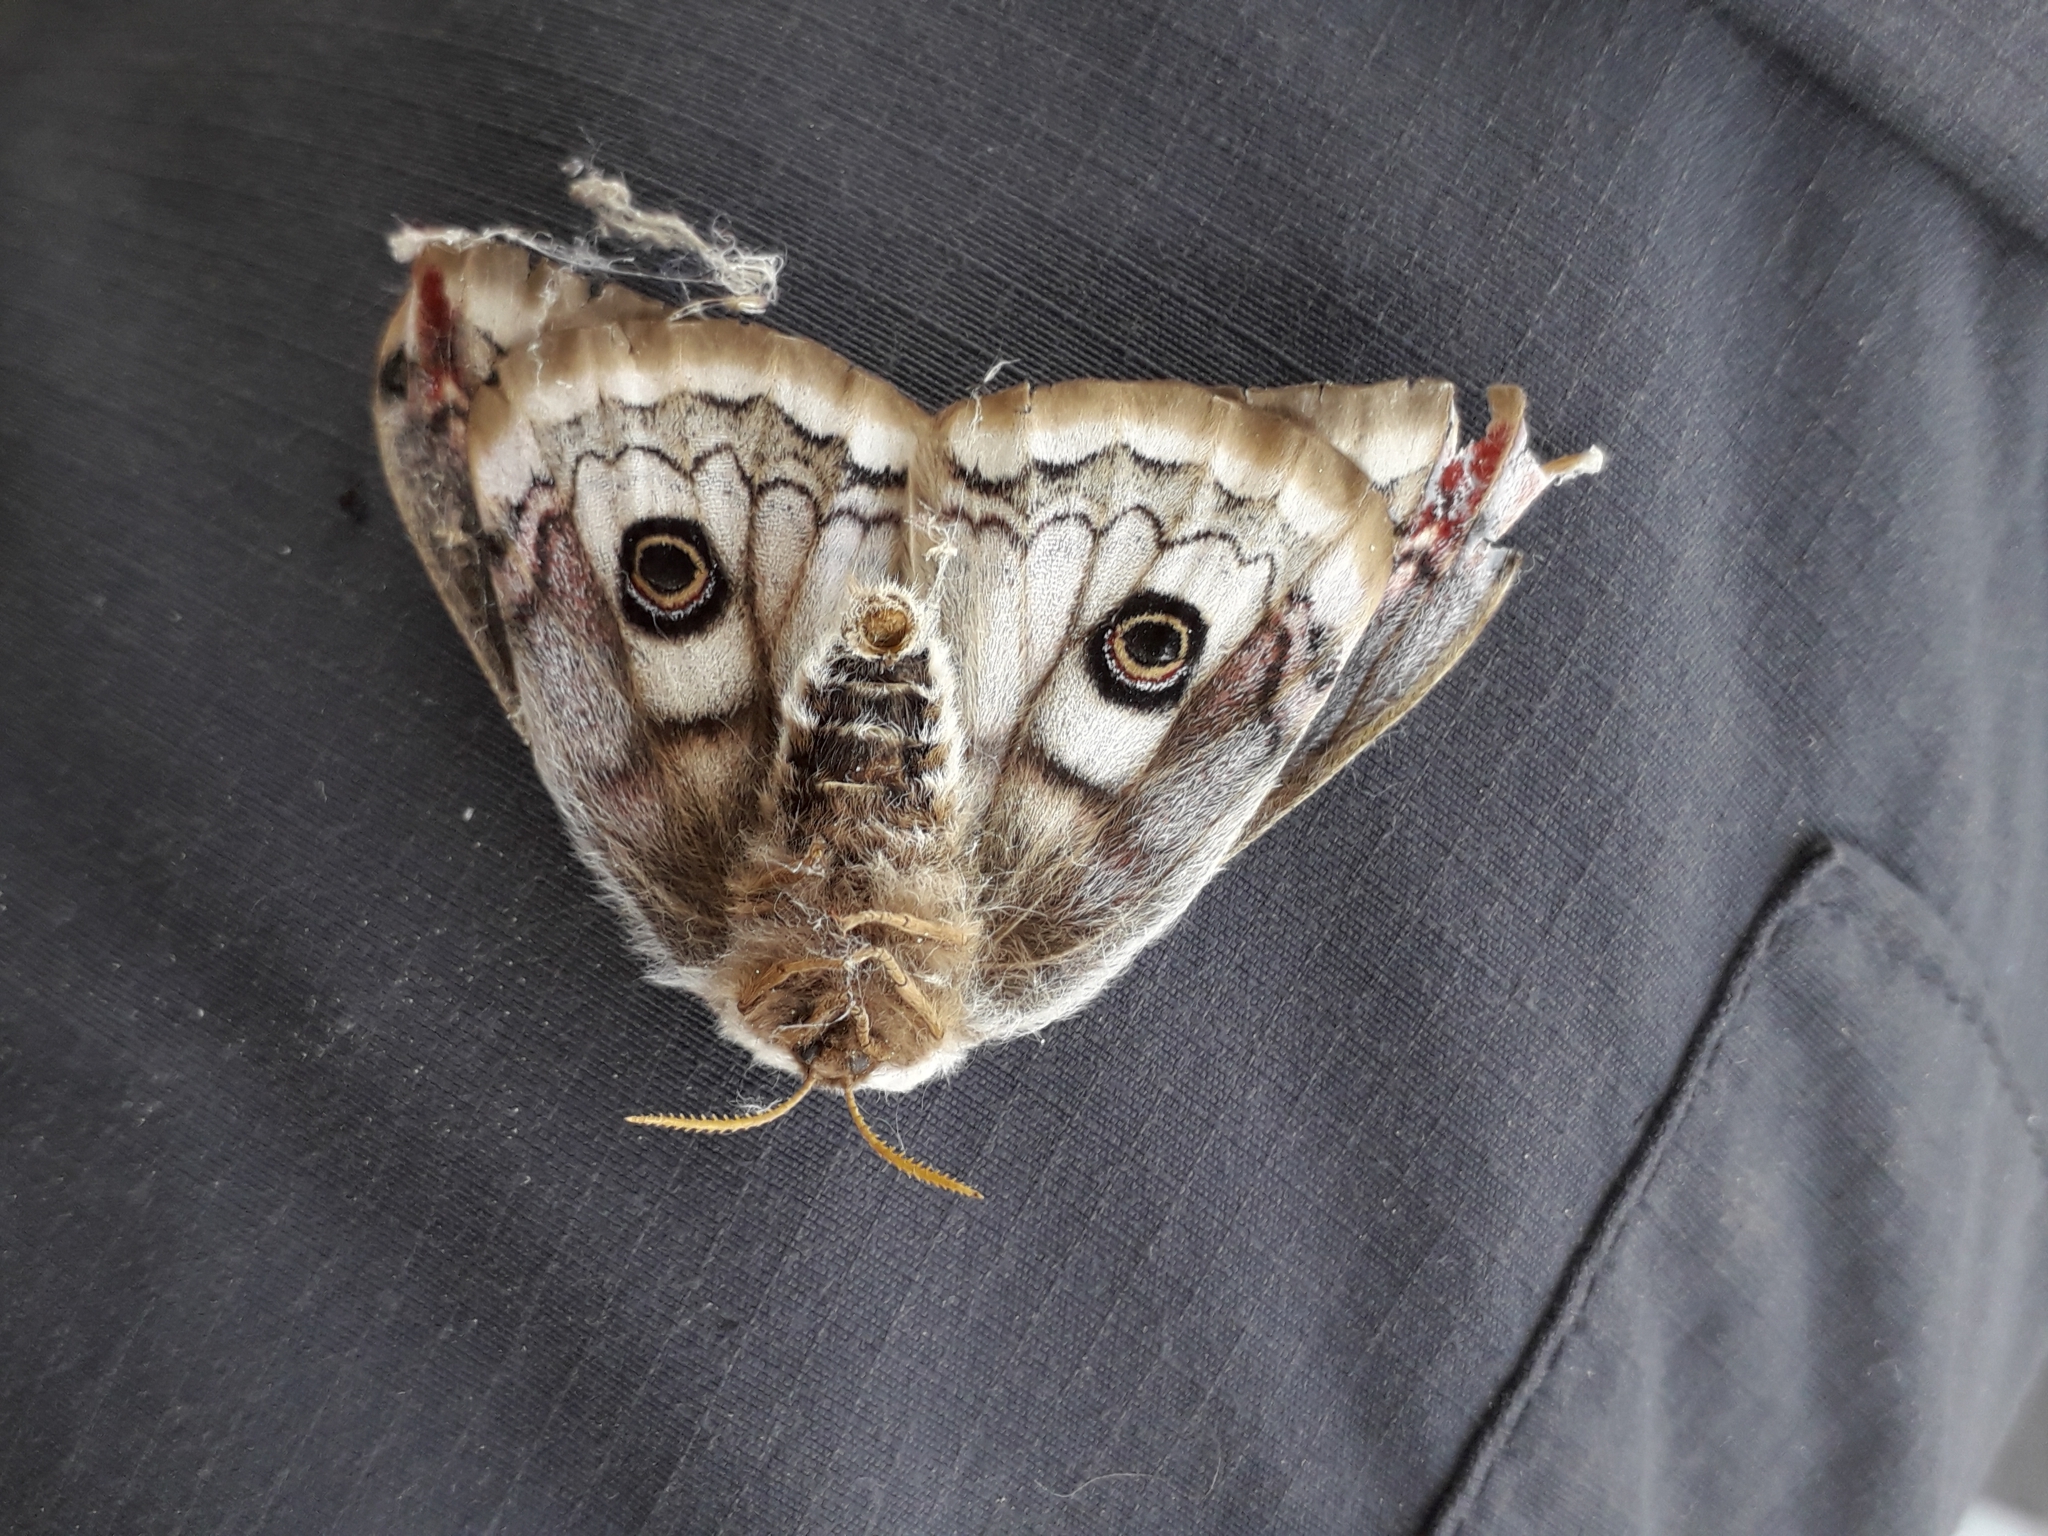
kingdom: Animalia
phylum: Arthropoda
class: Insecta
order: Lepidoptera
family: Saturniidae
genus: Saturnia
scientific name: Saturnia pavonia
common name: Emperor moth
